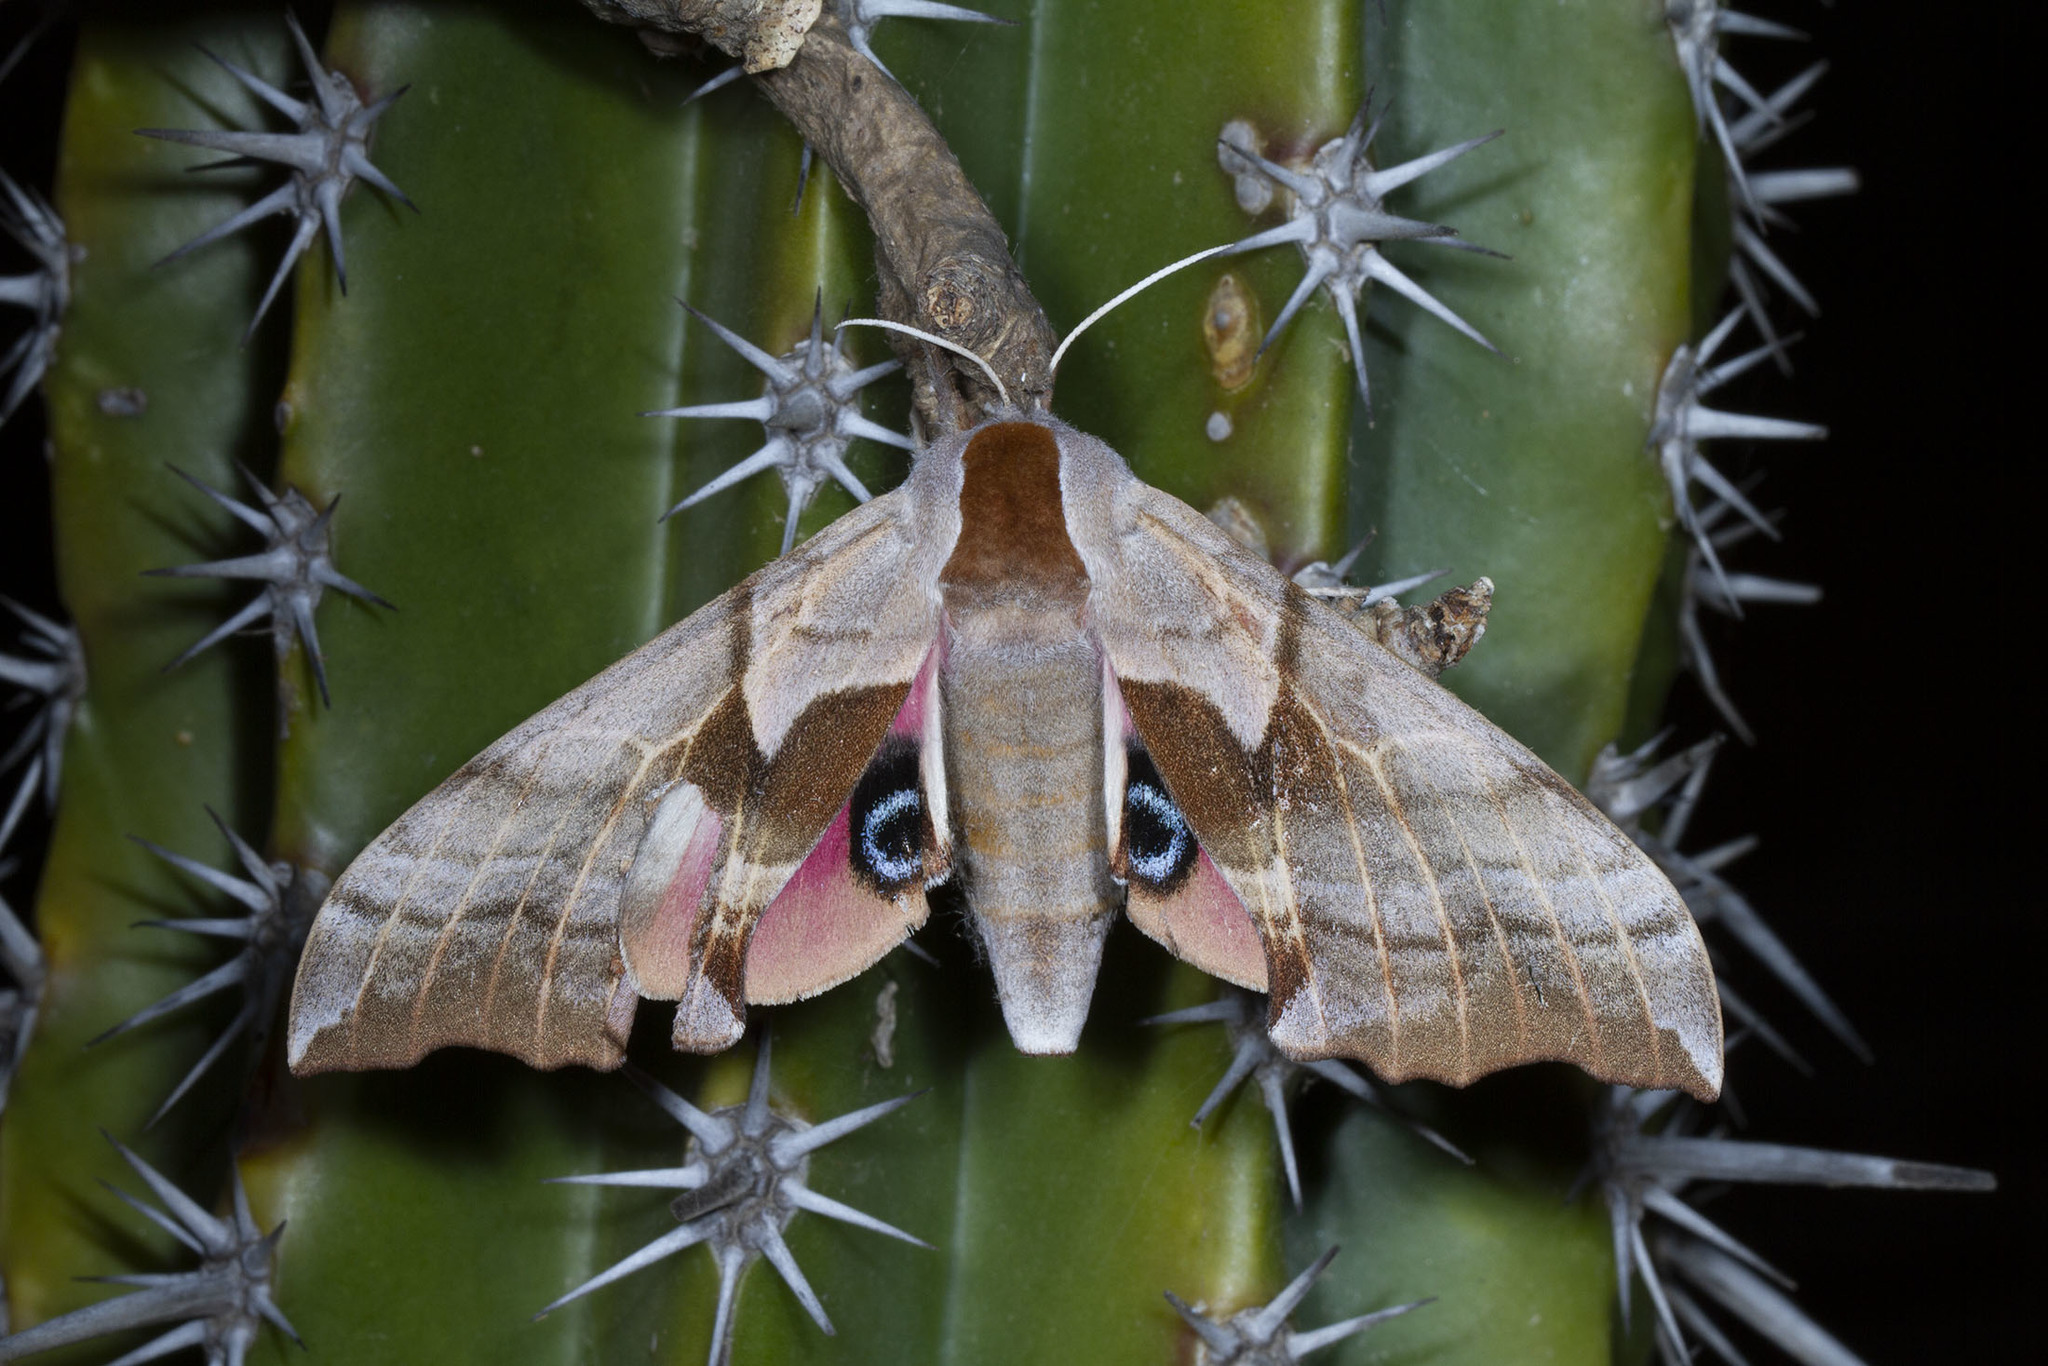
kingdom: Animalia
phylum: Arthropoda
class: Insecta
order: Lepidoptera
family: Sphingidae
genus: Smerinthus
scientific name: Smerinthus cerisyi
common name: Cerisy's sphinx moth
